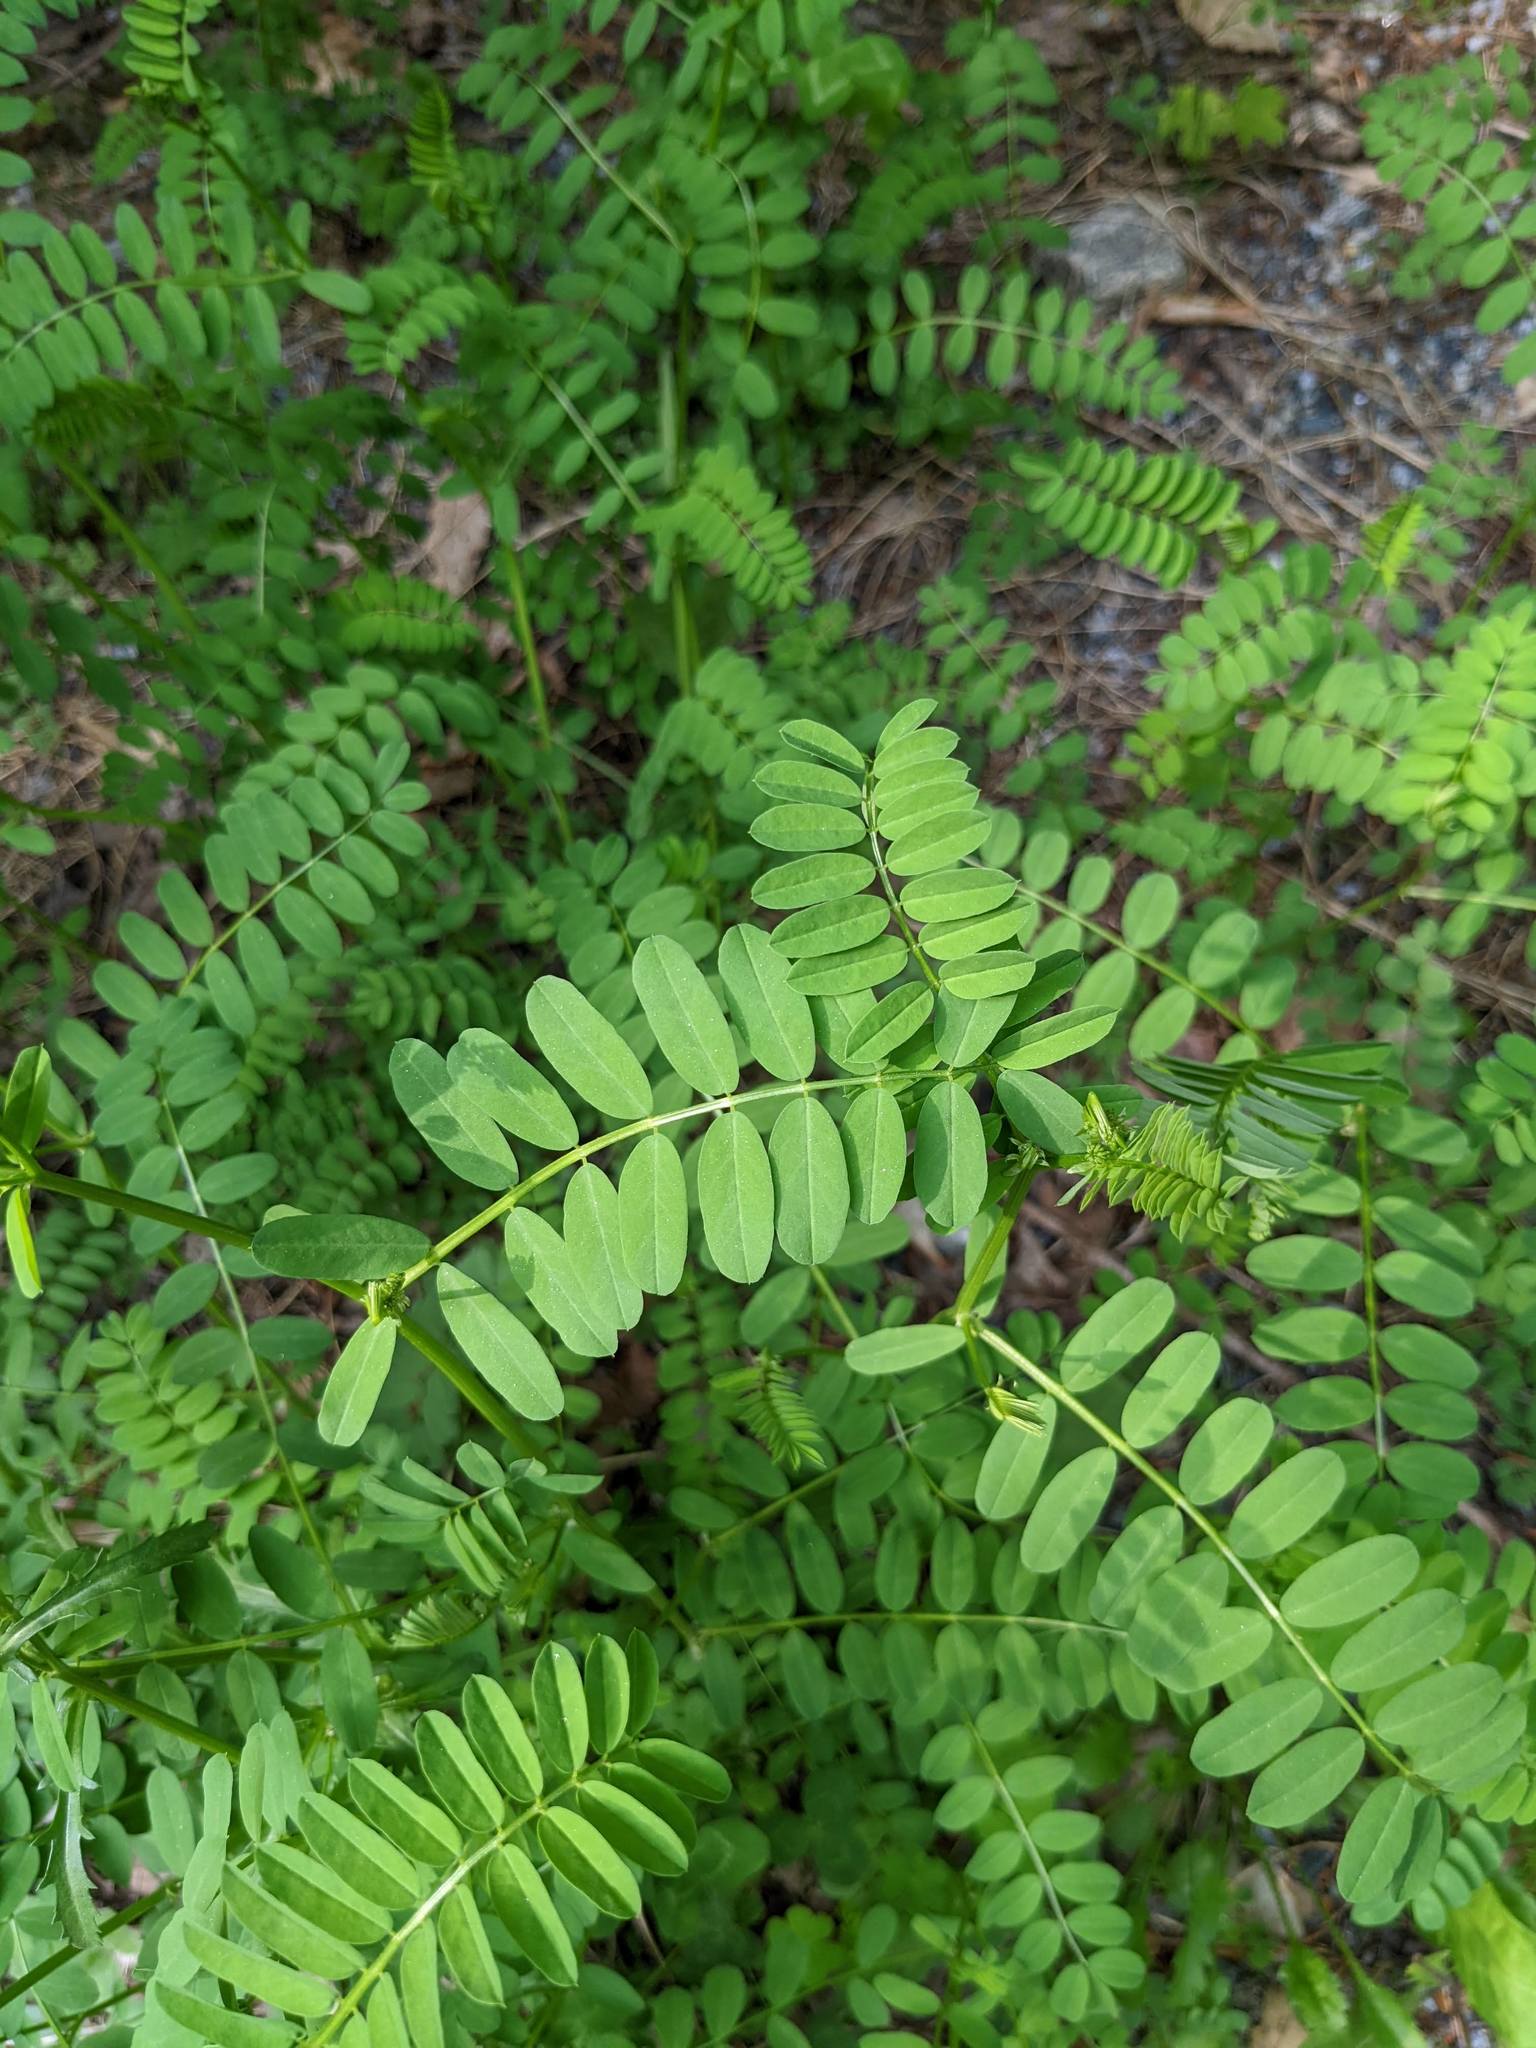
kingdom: Plantae
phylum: Tracheophyta
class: Magnoliopsida
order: Fabales
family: Fabaceae
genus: Coronilla
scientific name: Coronilla varia
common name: Crownvetch
